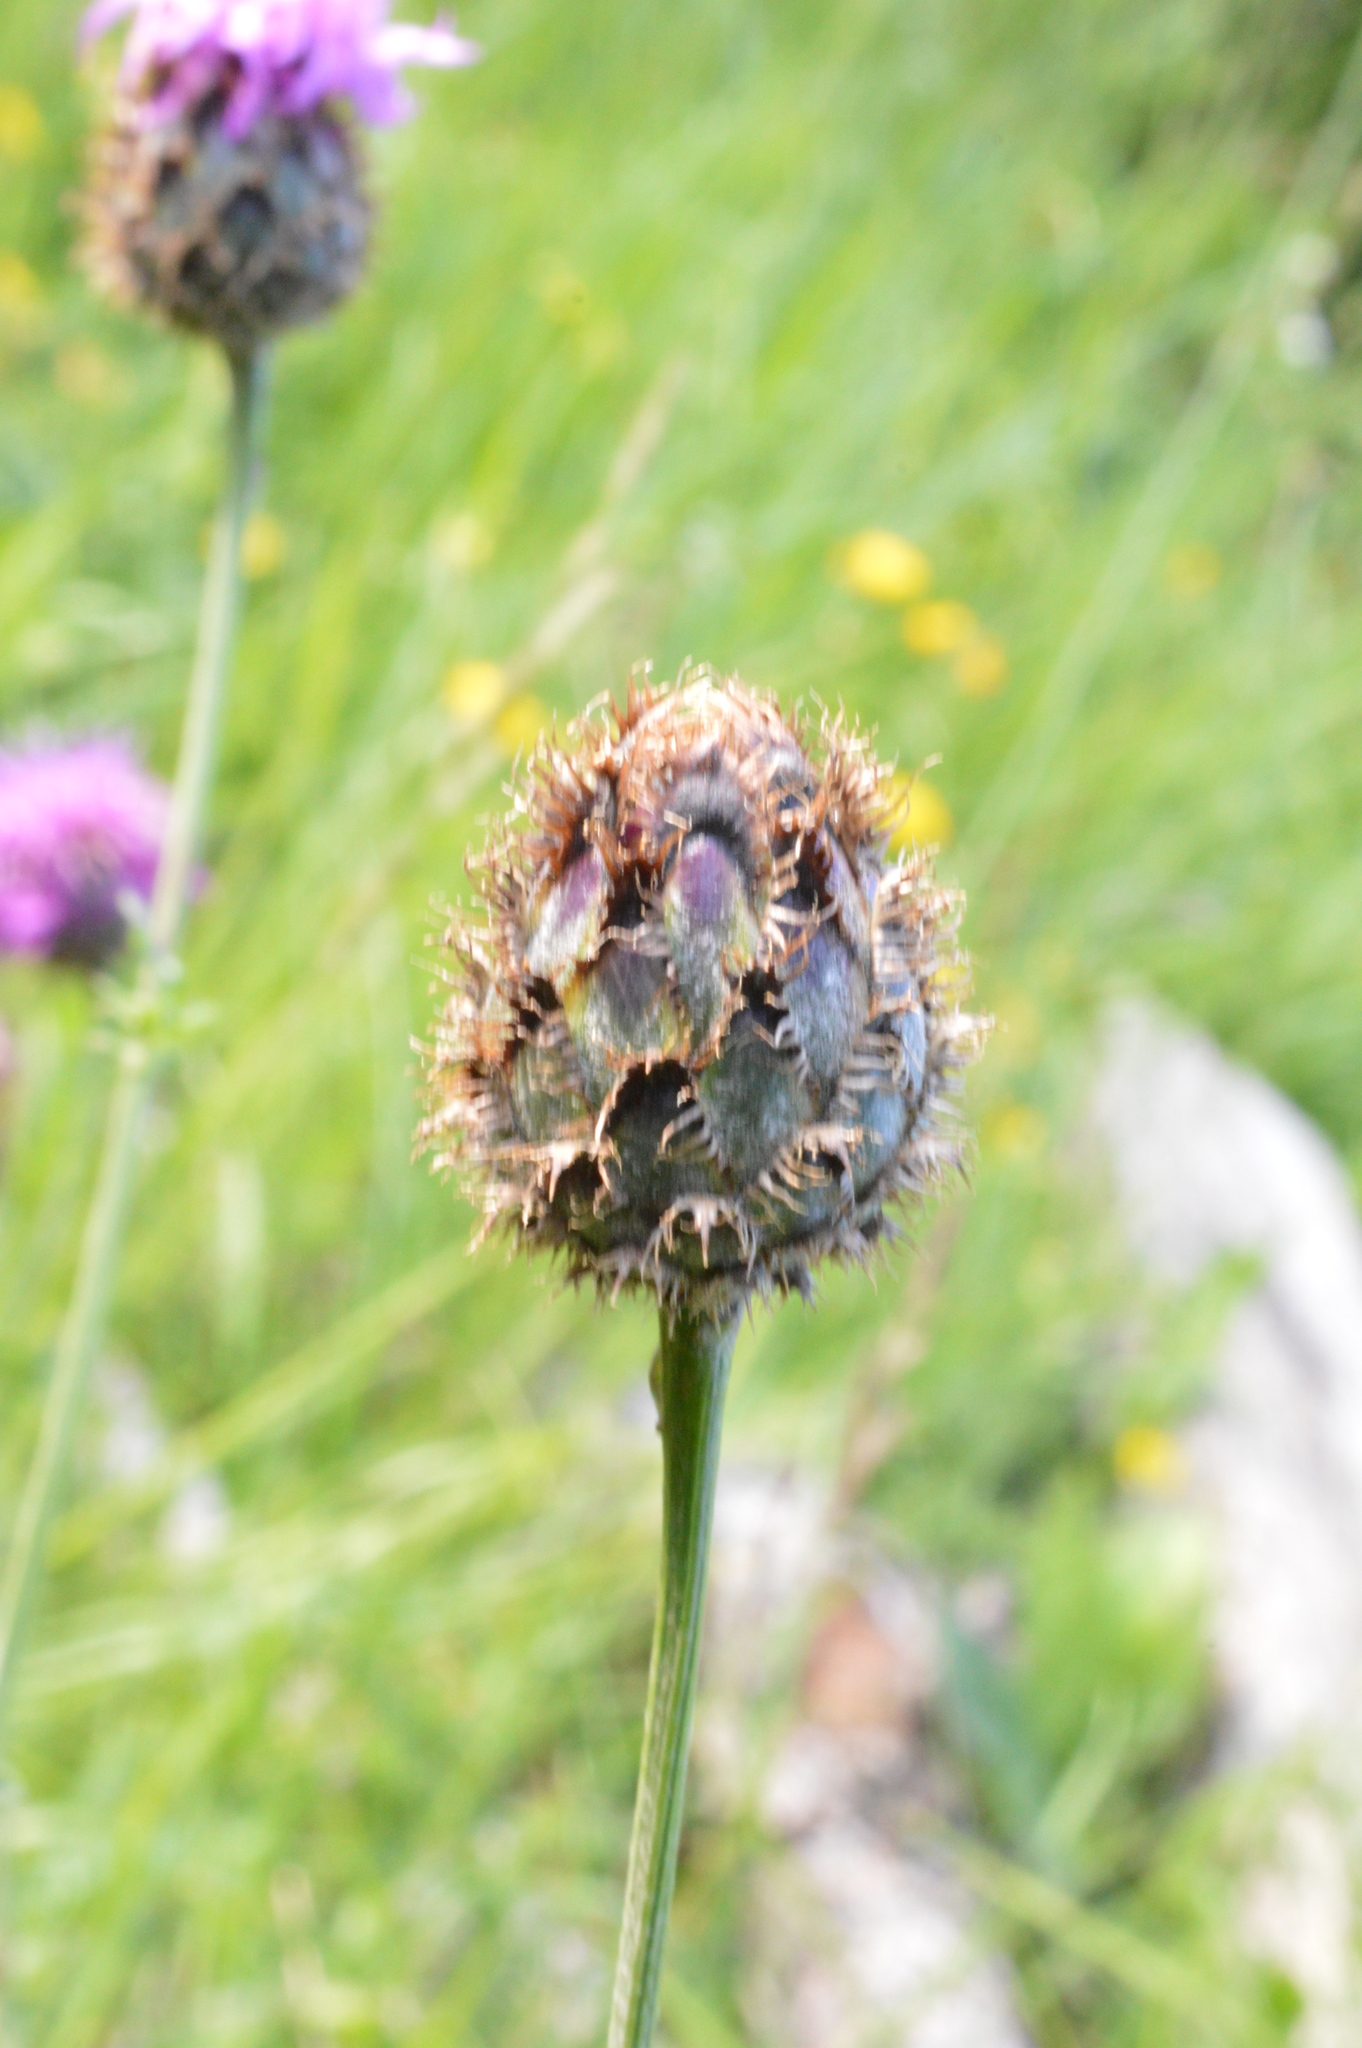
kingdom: Plantae
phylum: Tracheophyta
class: Magnoliopsida
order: Asterales
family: Asteraceae
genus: Centaurea
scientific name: Centaurea scabiosa
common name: Greater knapweed
